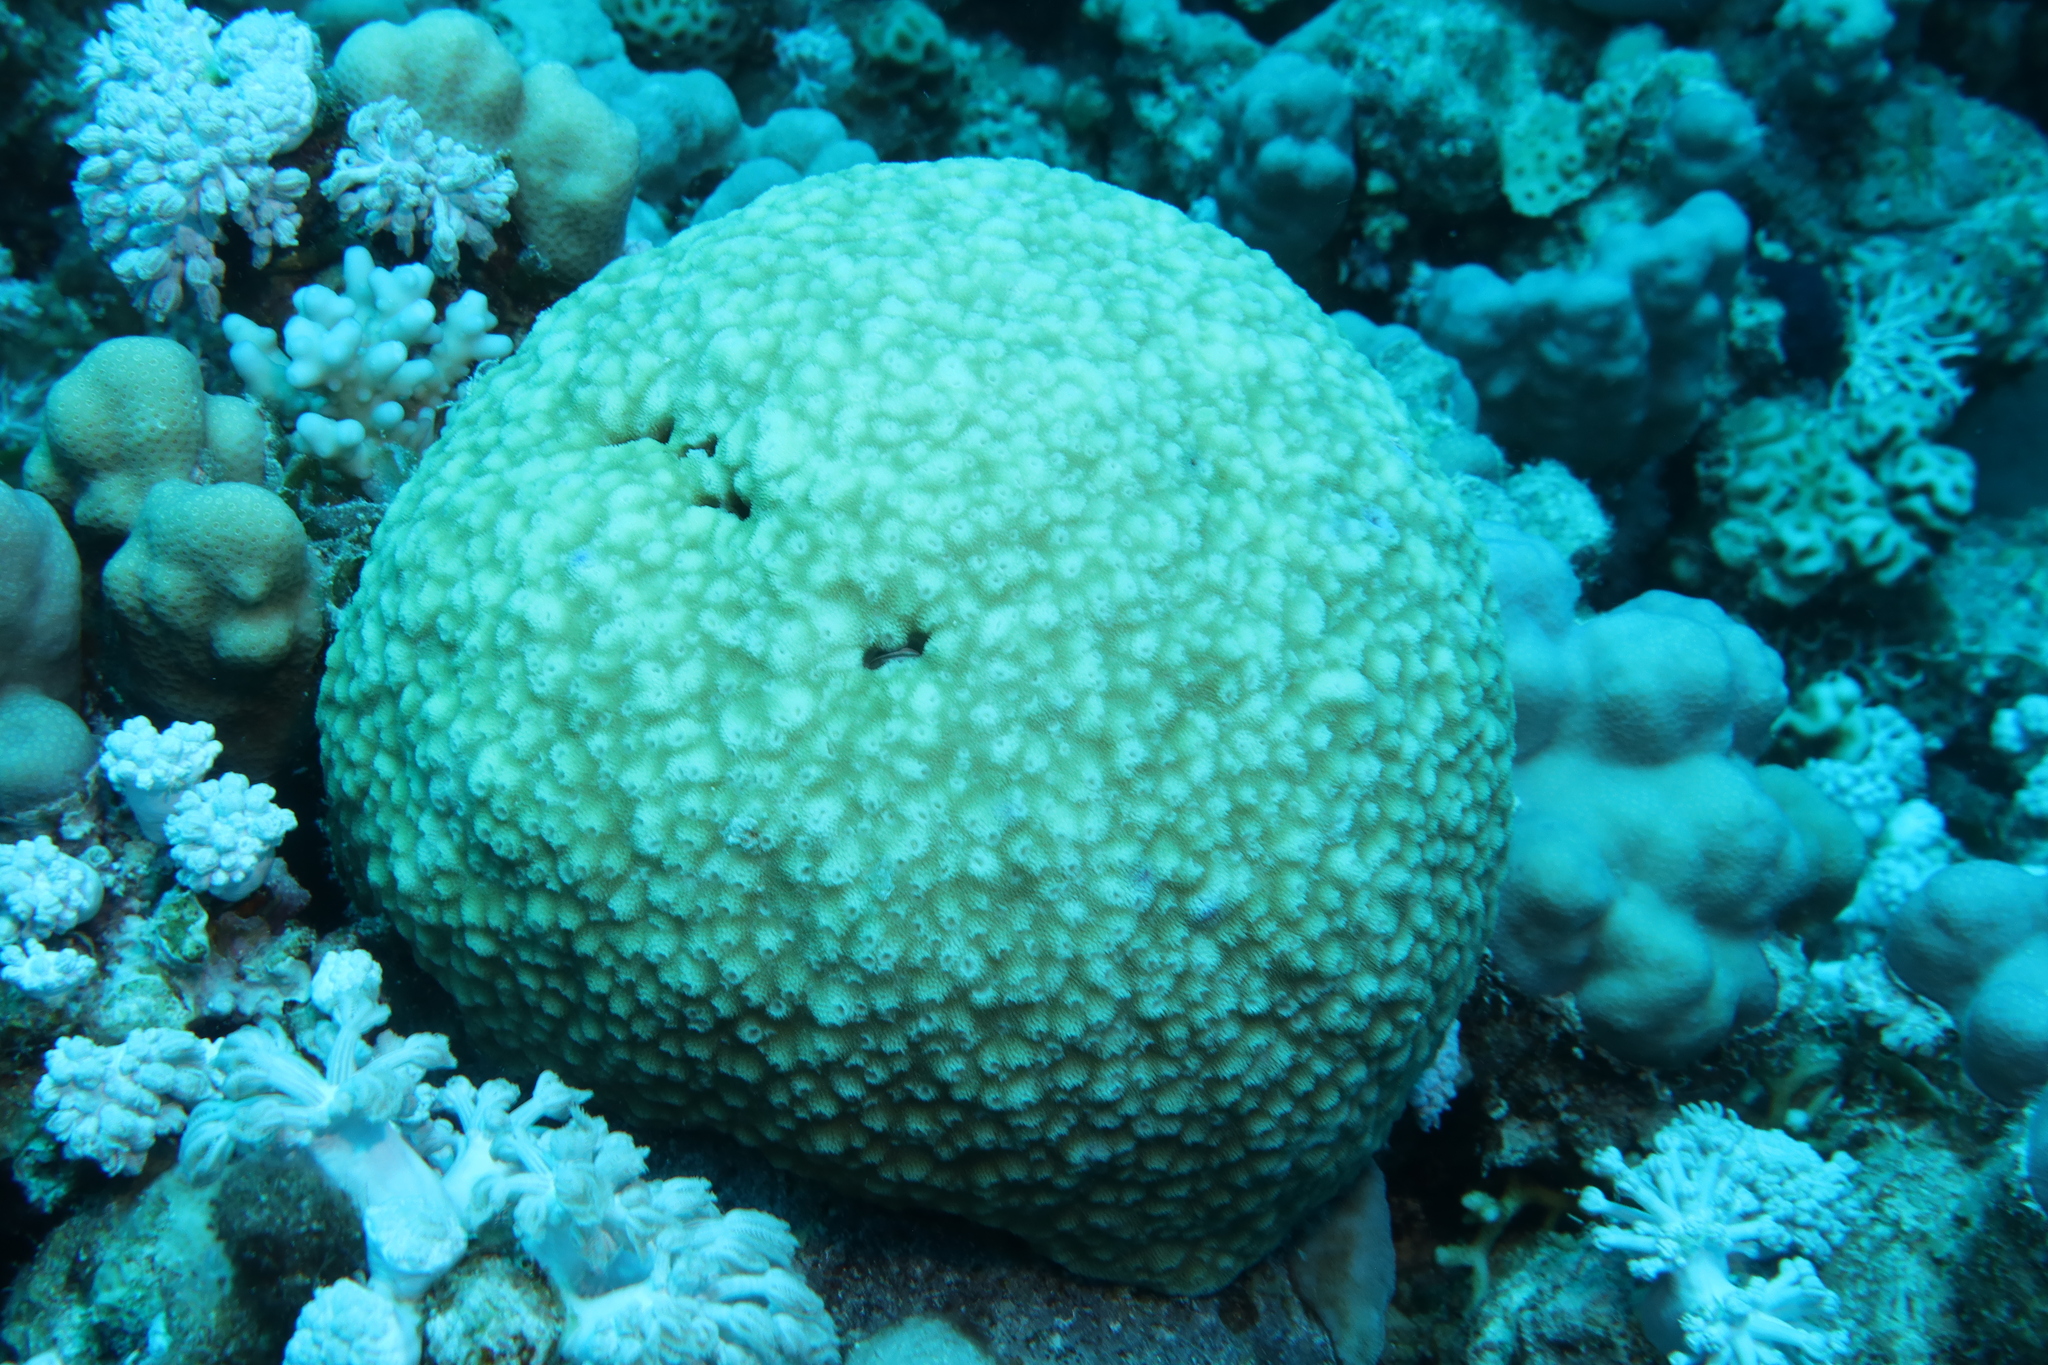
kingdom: Animalia
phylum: Cnidaria
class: Anthozoa
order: Scleractinia
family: Acroporidae
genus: Astreopora
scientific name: Astreopora myriophthalma
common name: Starflower coral
